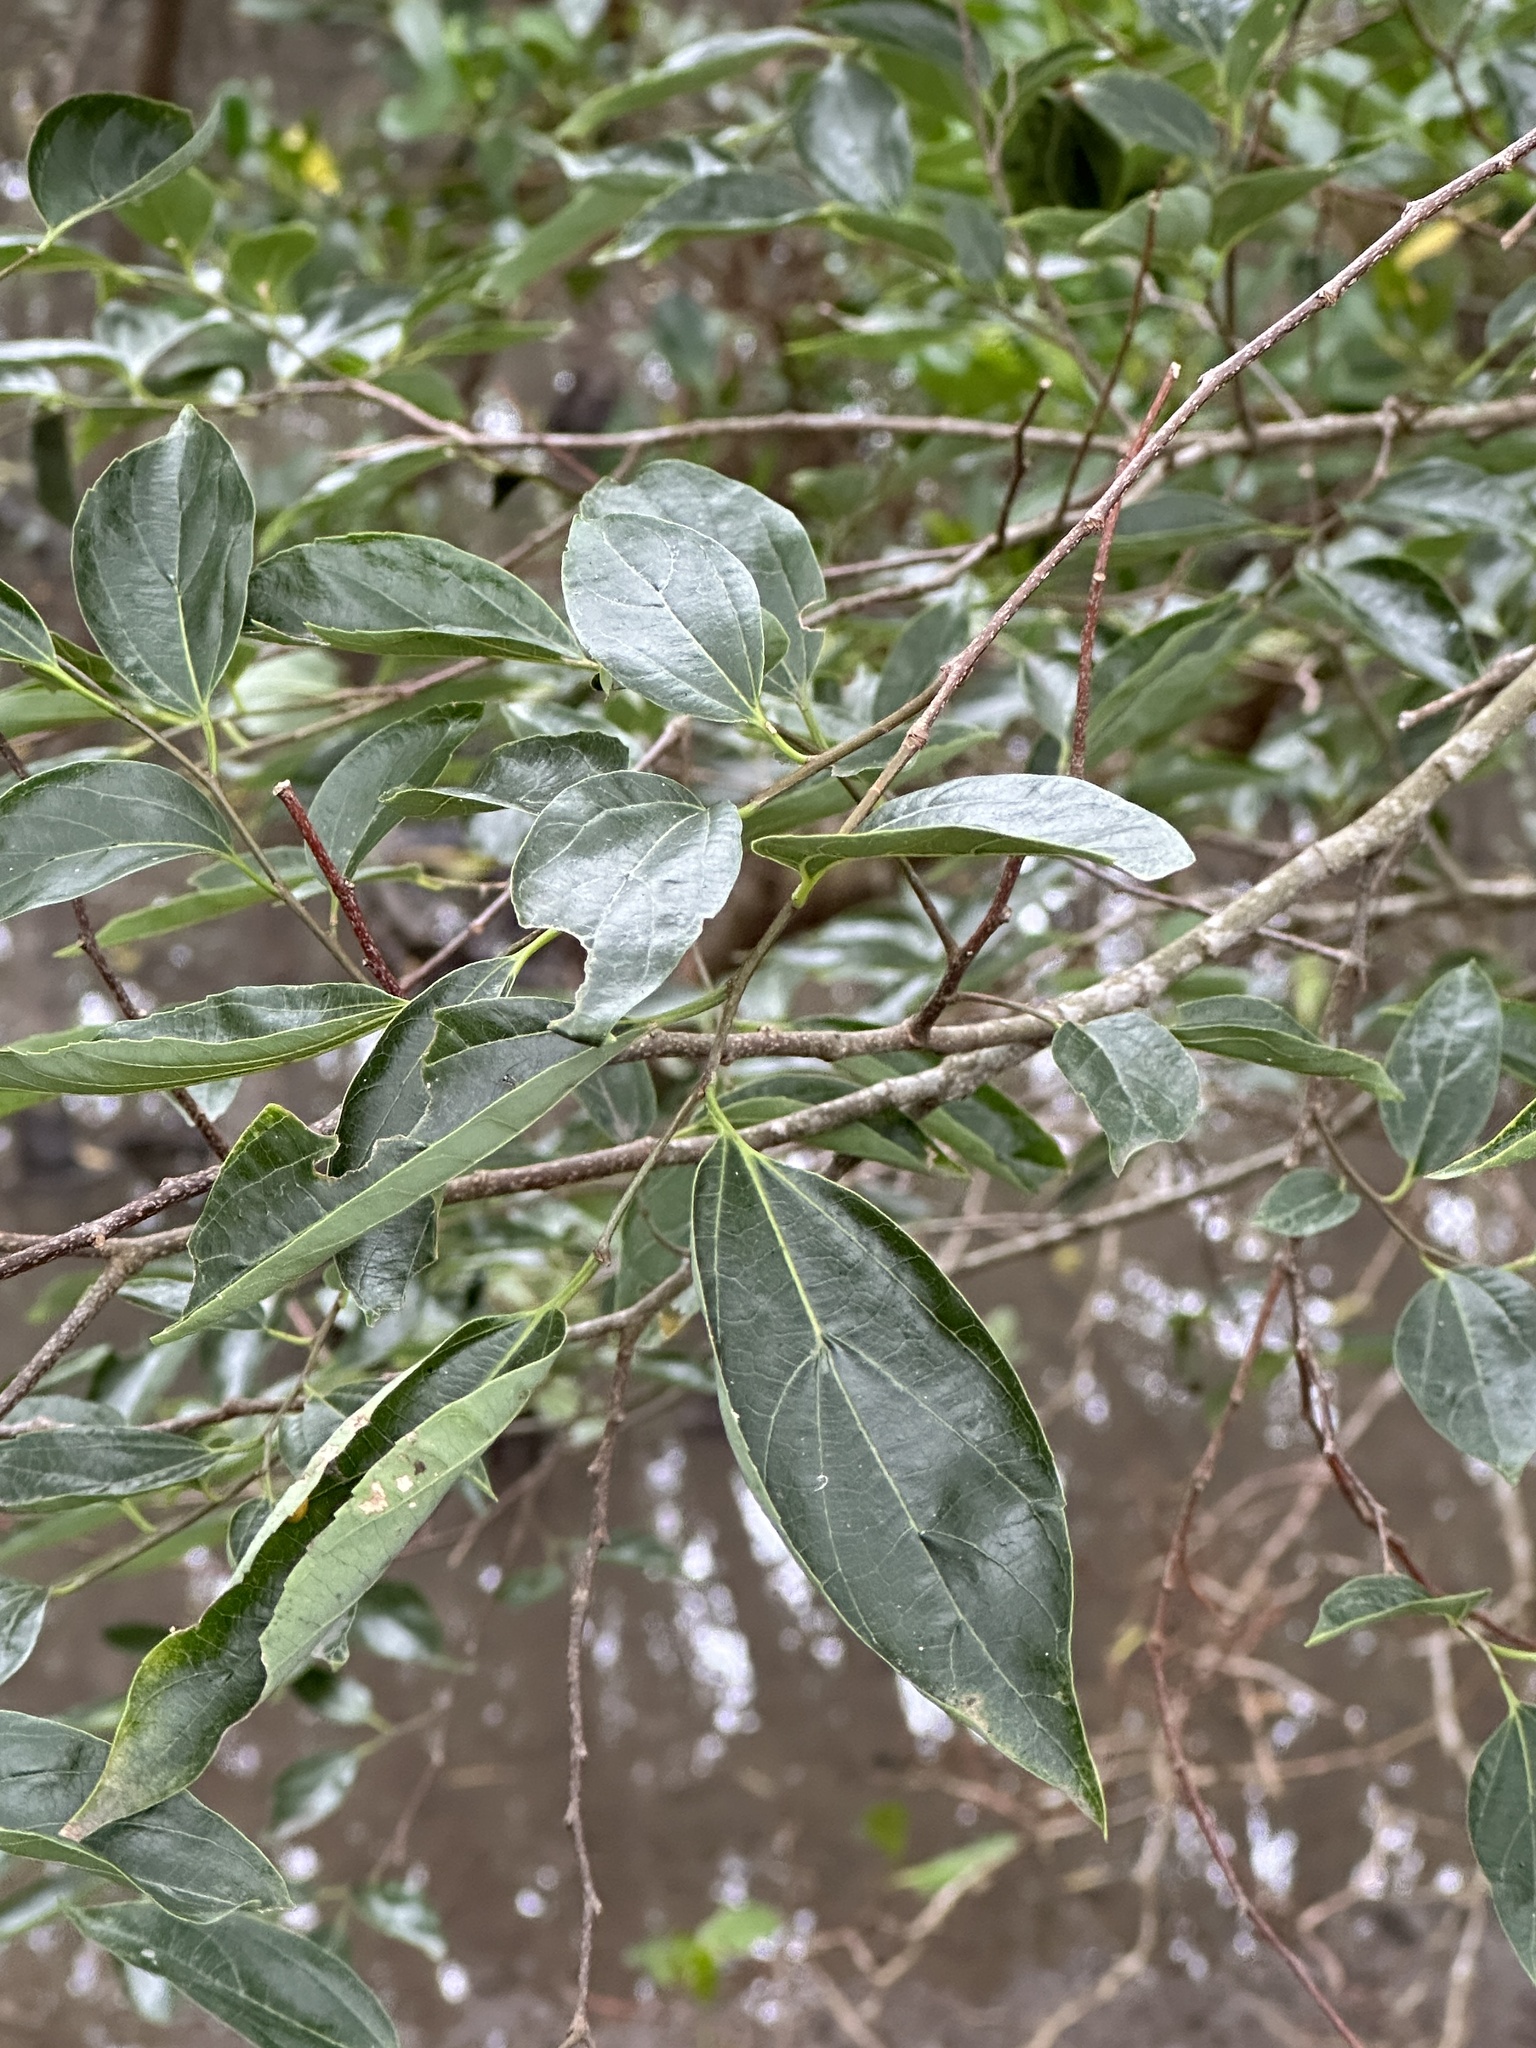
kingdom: Plantae
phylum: Tracheophyta
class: Magnoliopsida
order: Rosales
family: Cannabaceae
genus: Celtis
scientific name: Celtis tetrandra
